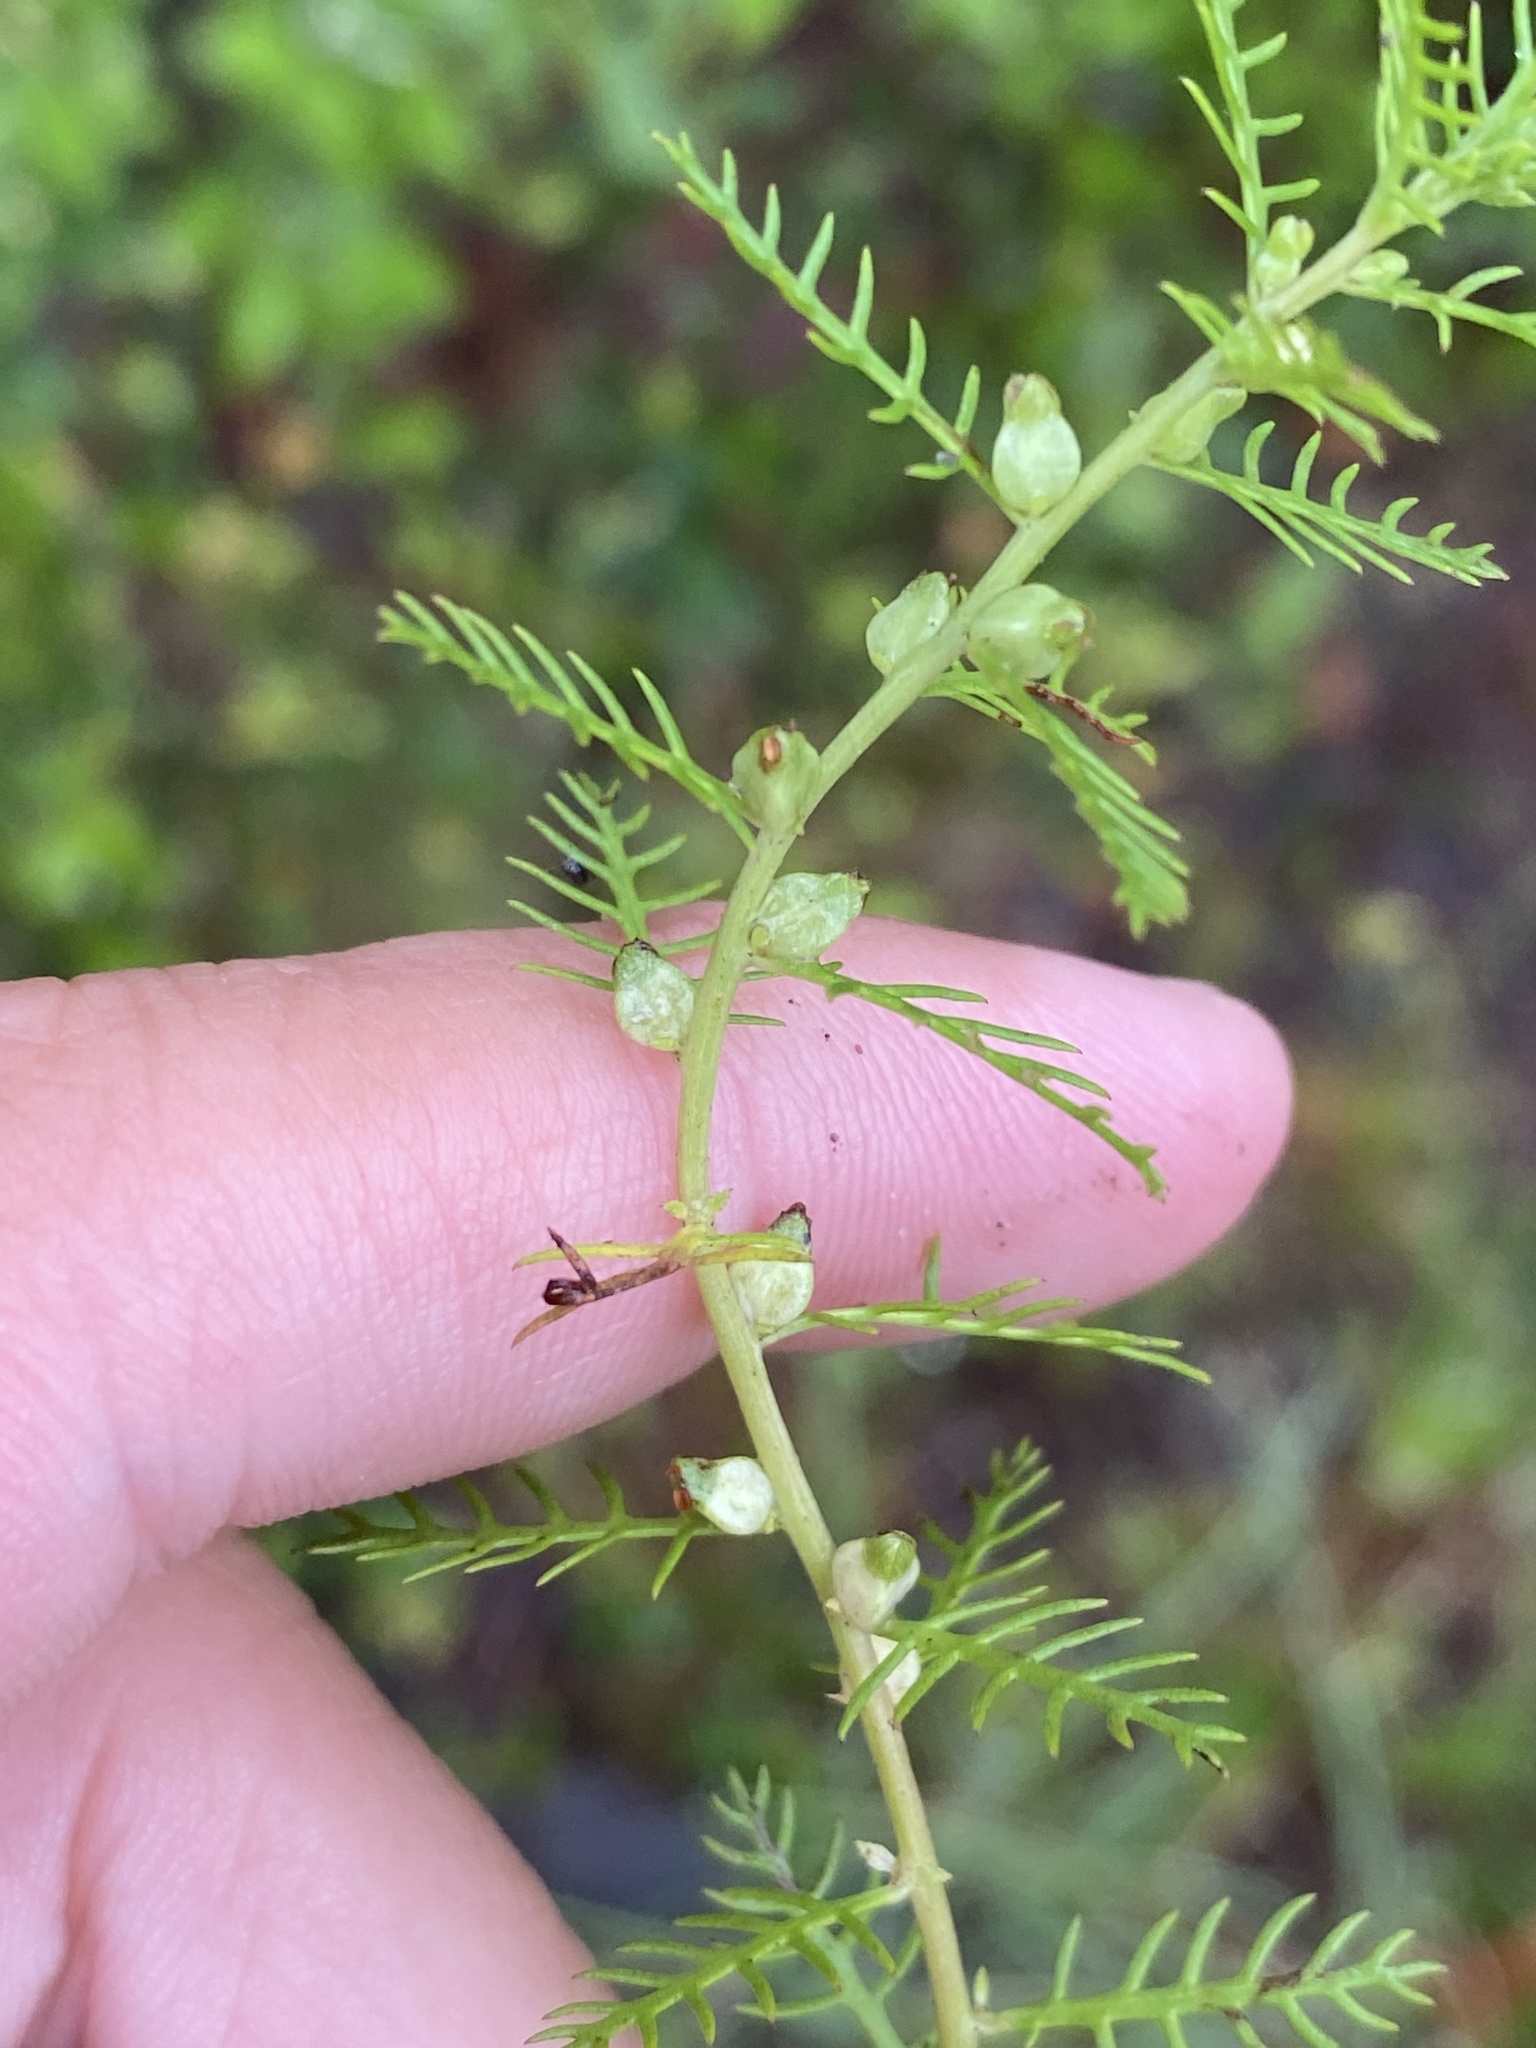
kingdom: Plantae
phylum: Tracheophyta
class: Magnoliopsida
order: Saxifragales
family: Haloragaceae
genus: Proserpinaca
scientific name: Proserpinaca pectinata
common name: Comb-leaved mermaidweed
